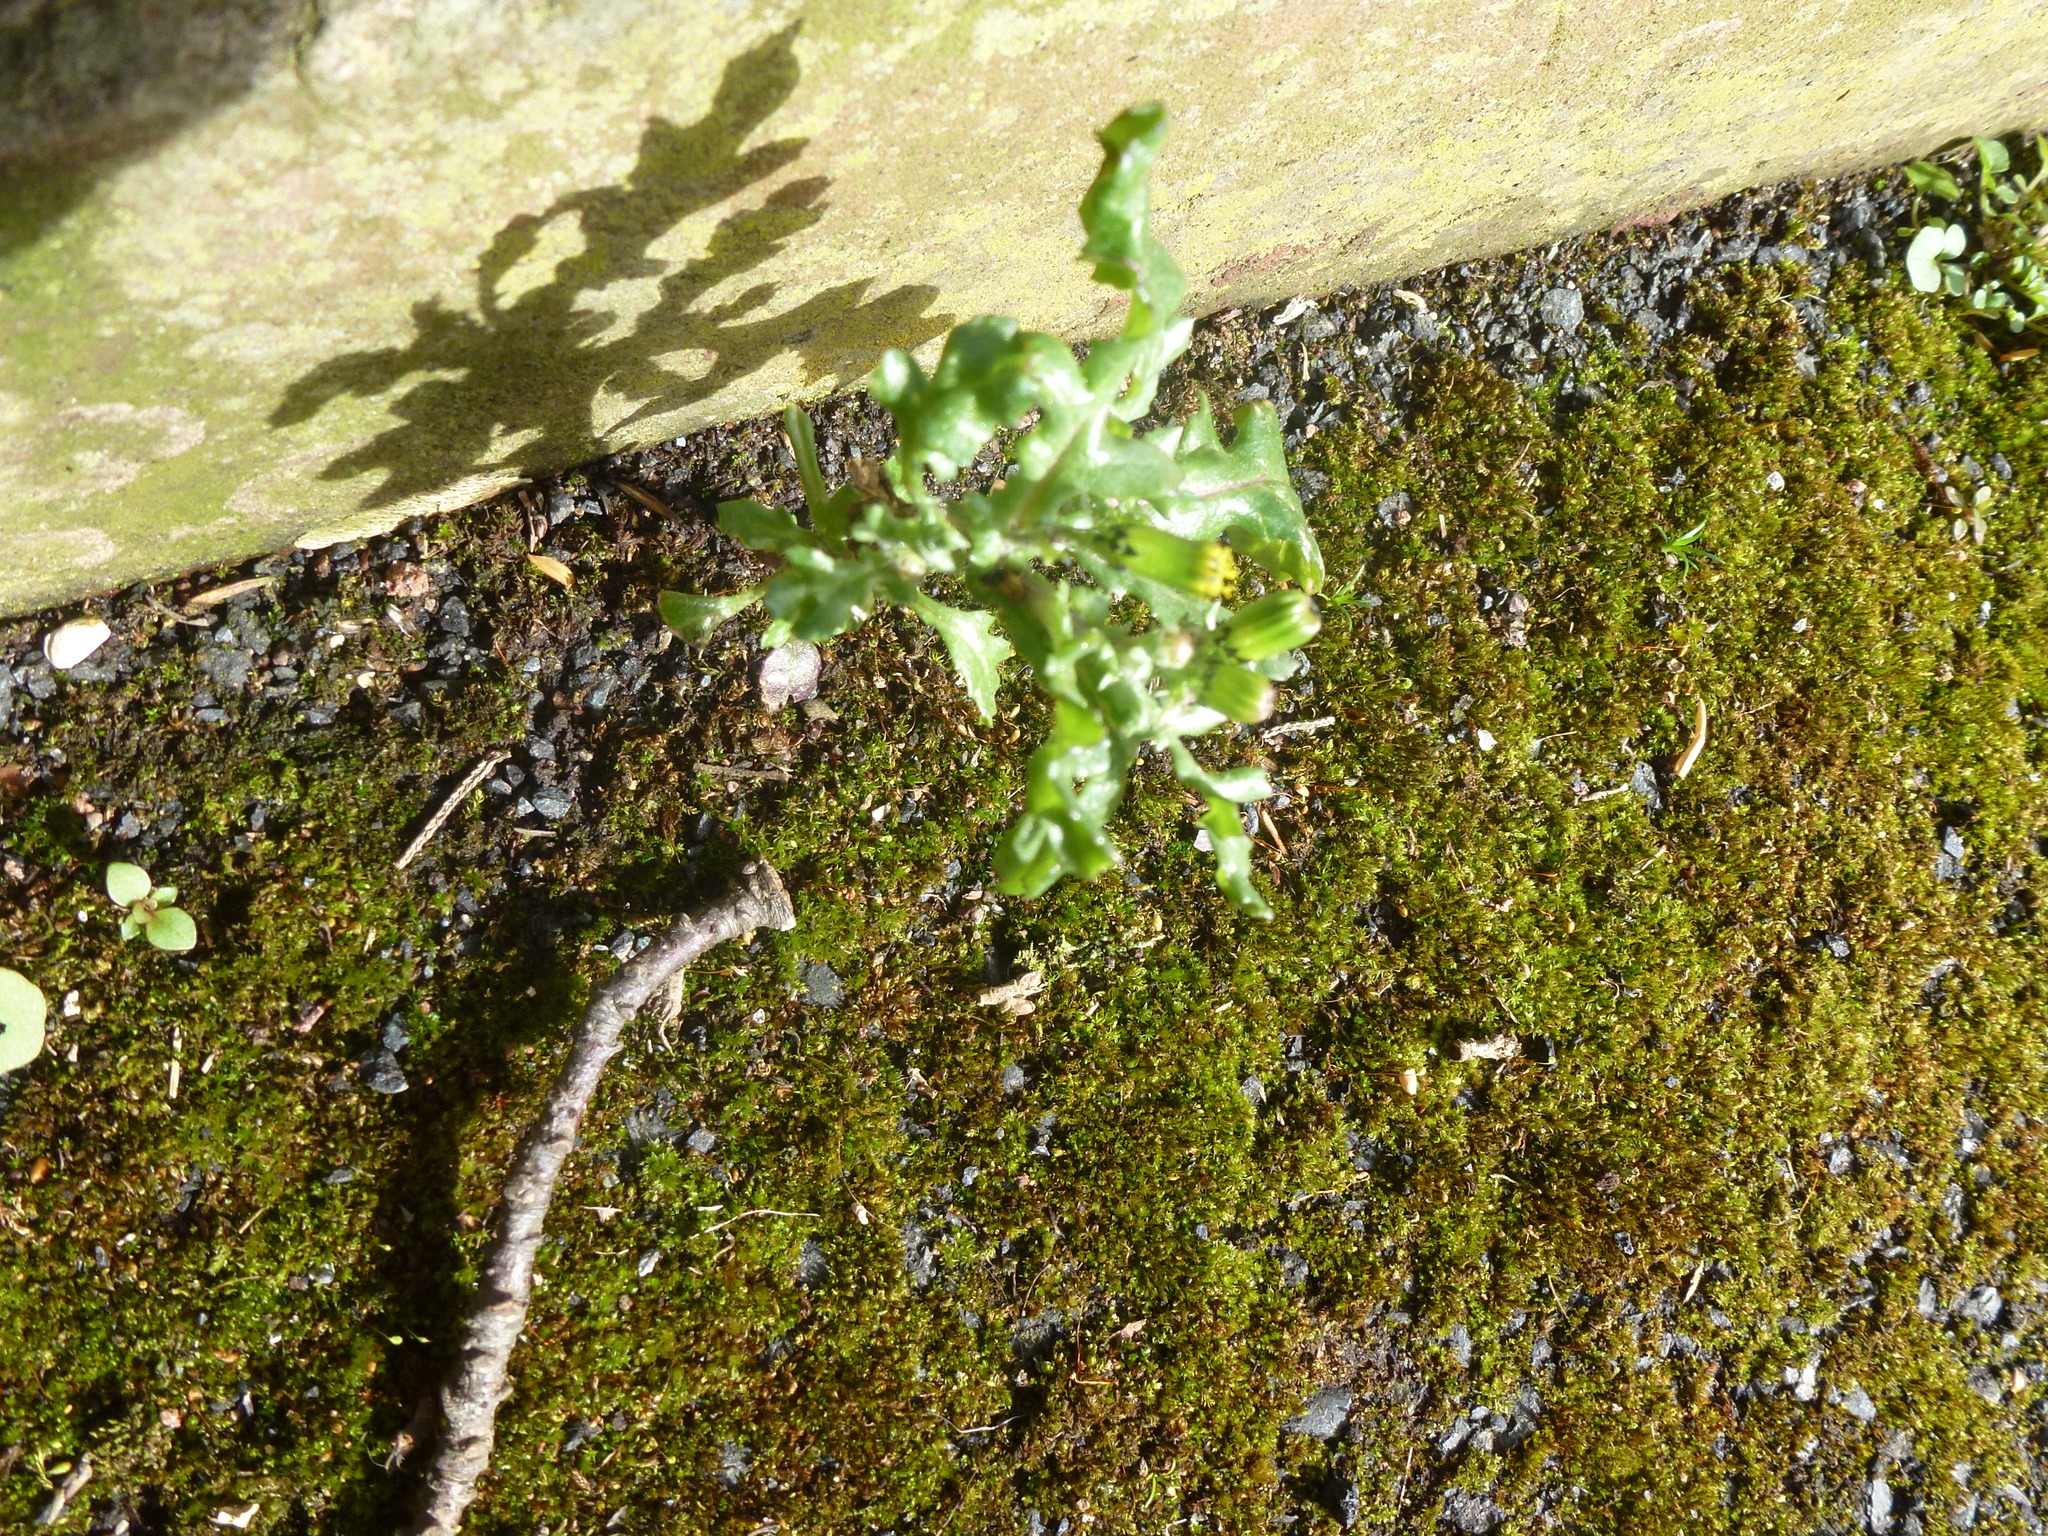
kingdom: Plantae
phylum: Tracheophyta
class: Magnoliopsida
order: Asterales
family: Asteraceae
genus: Senecio
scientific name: Senecio vulgaris
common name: Old-man-in-the-spring
